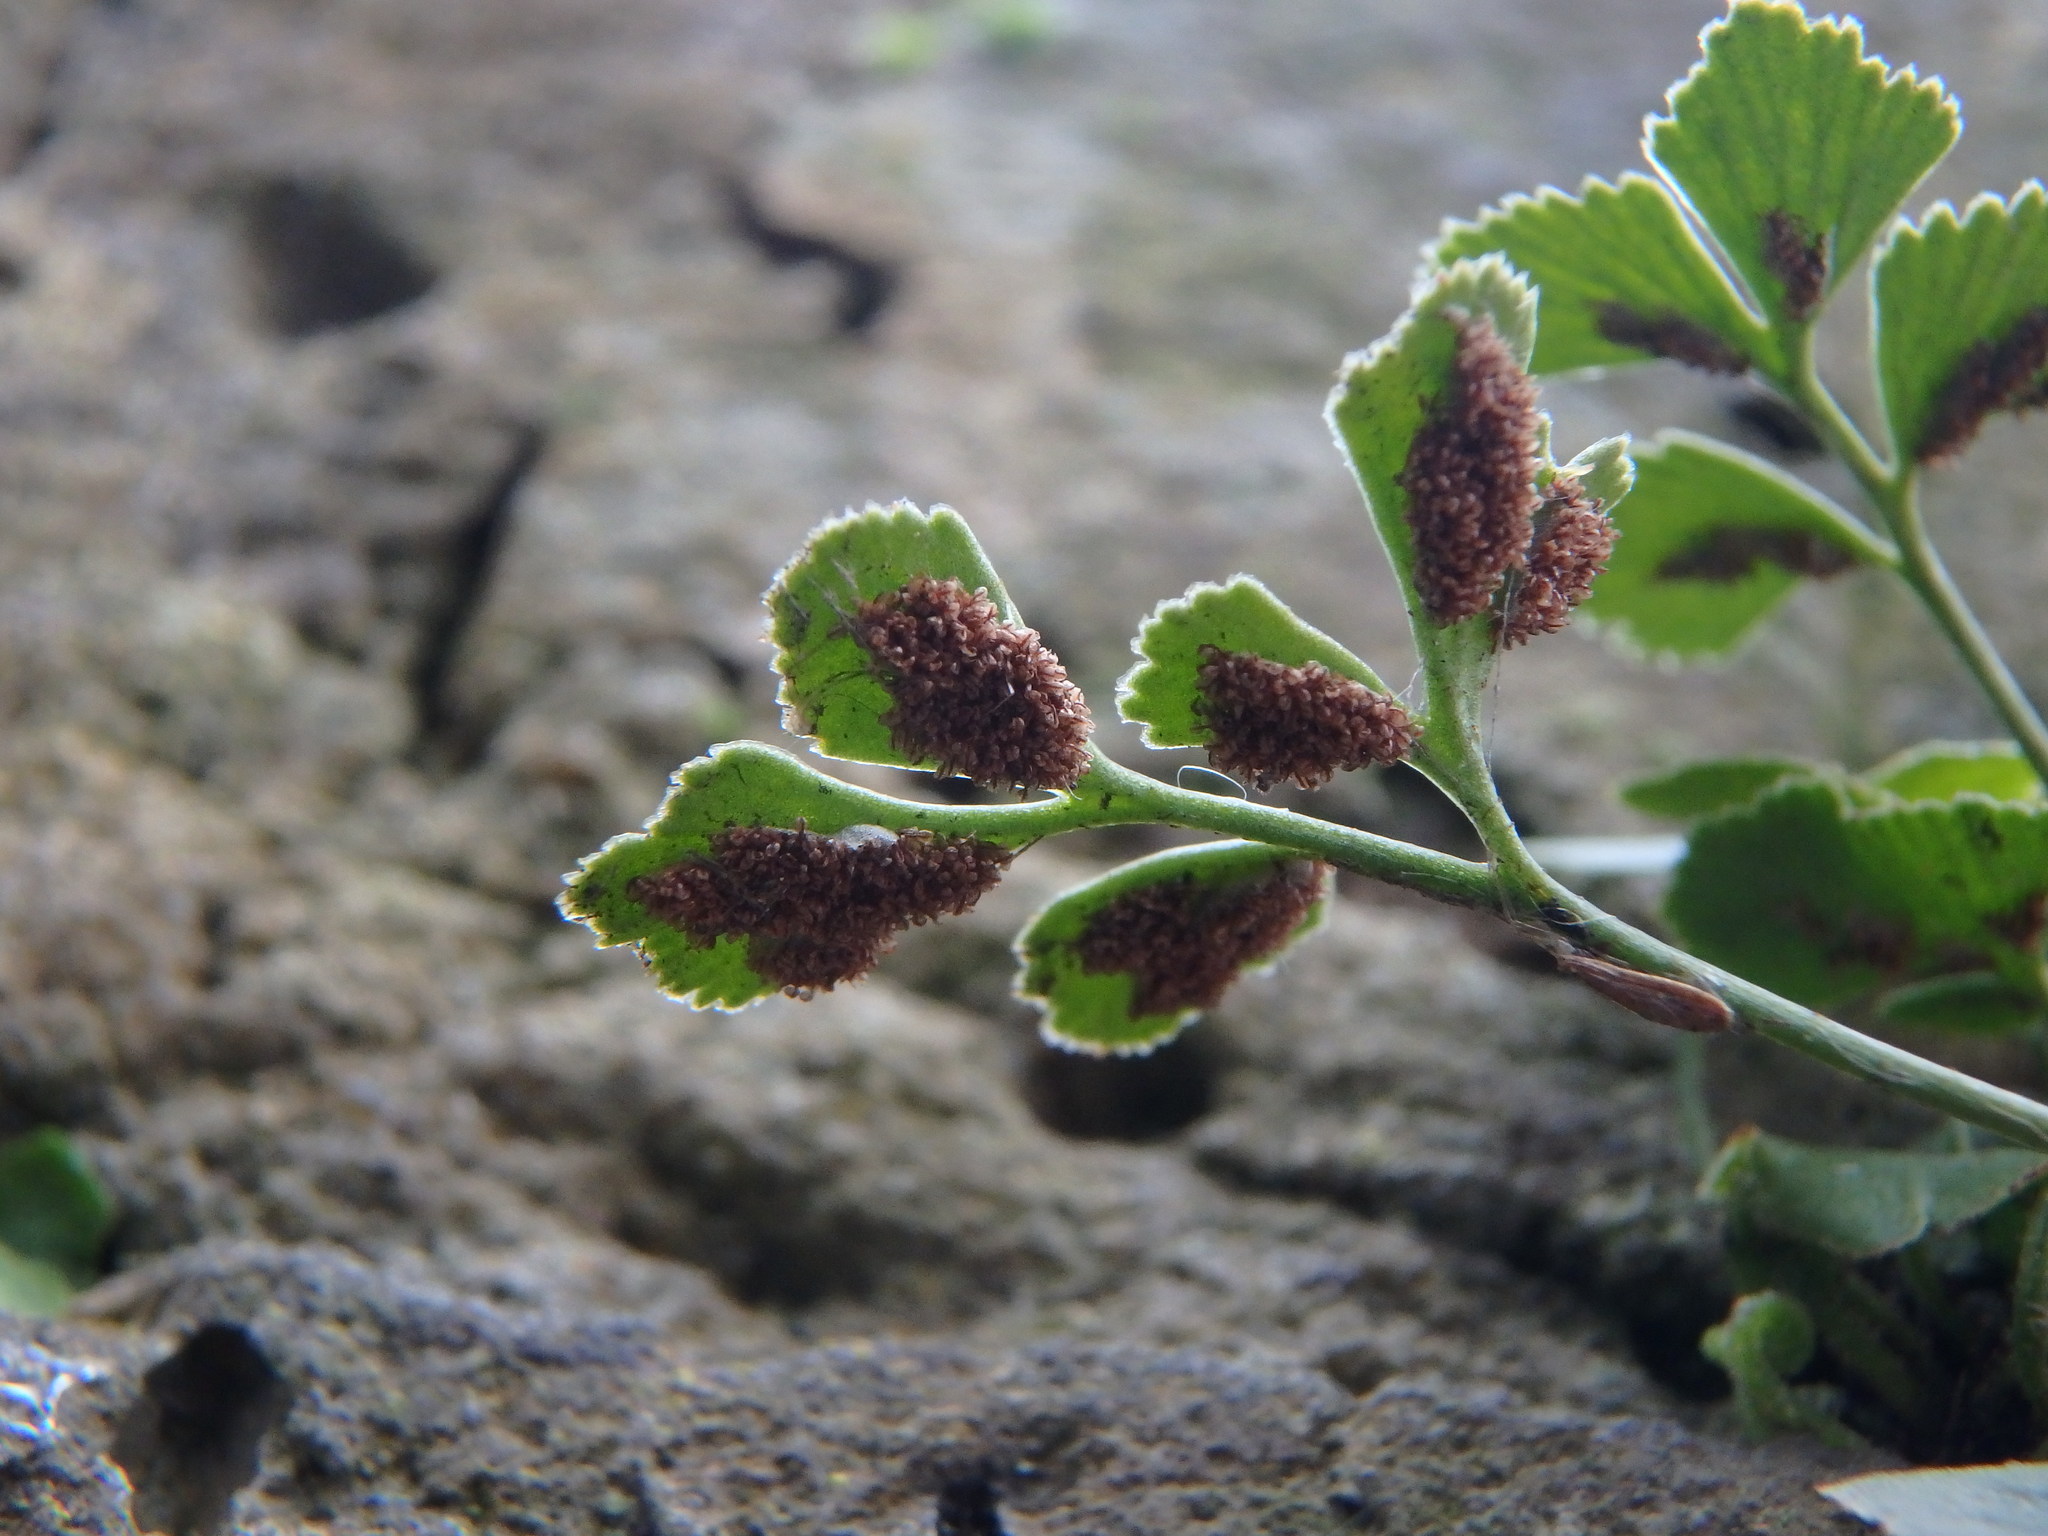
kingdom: Plantae
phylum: Tracheophyta
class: Polypodiopsida
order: Polypodiales
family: Aspleniaceae
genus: Asplenium
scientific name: Asplenium ruta-muraria
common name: Wall-rue
